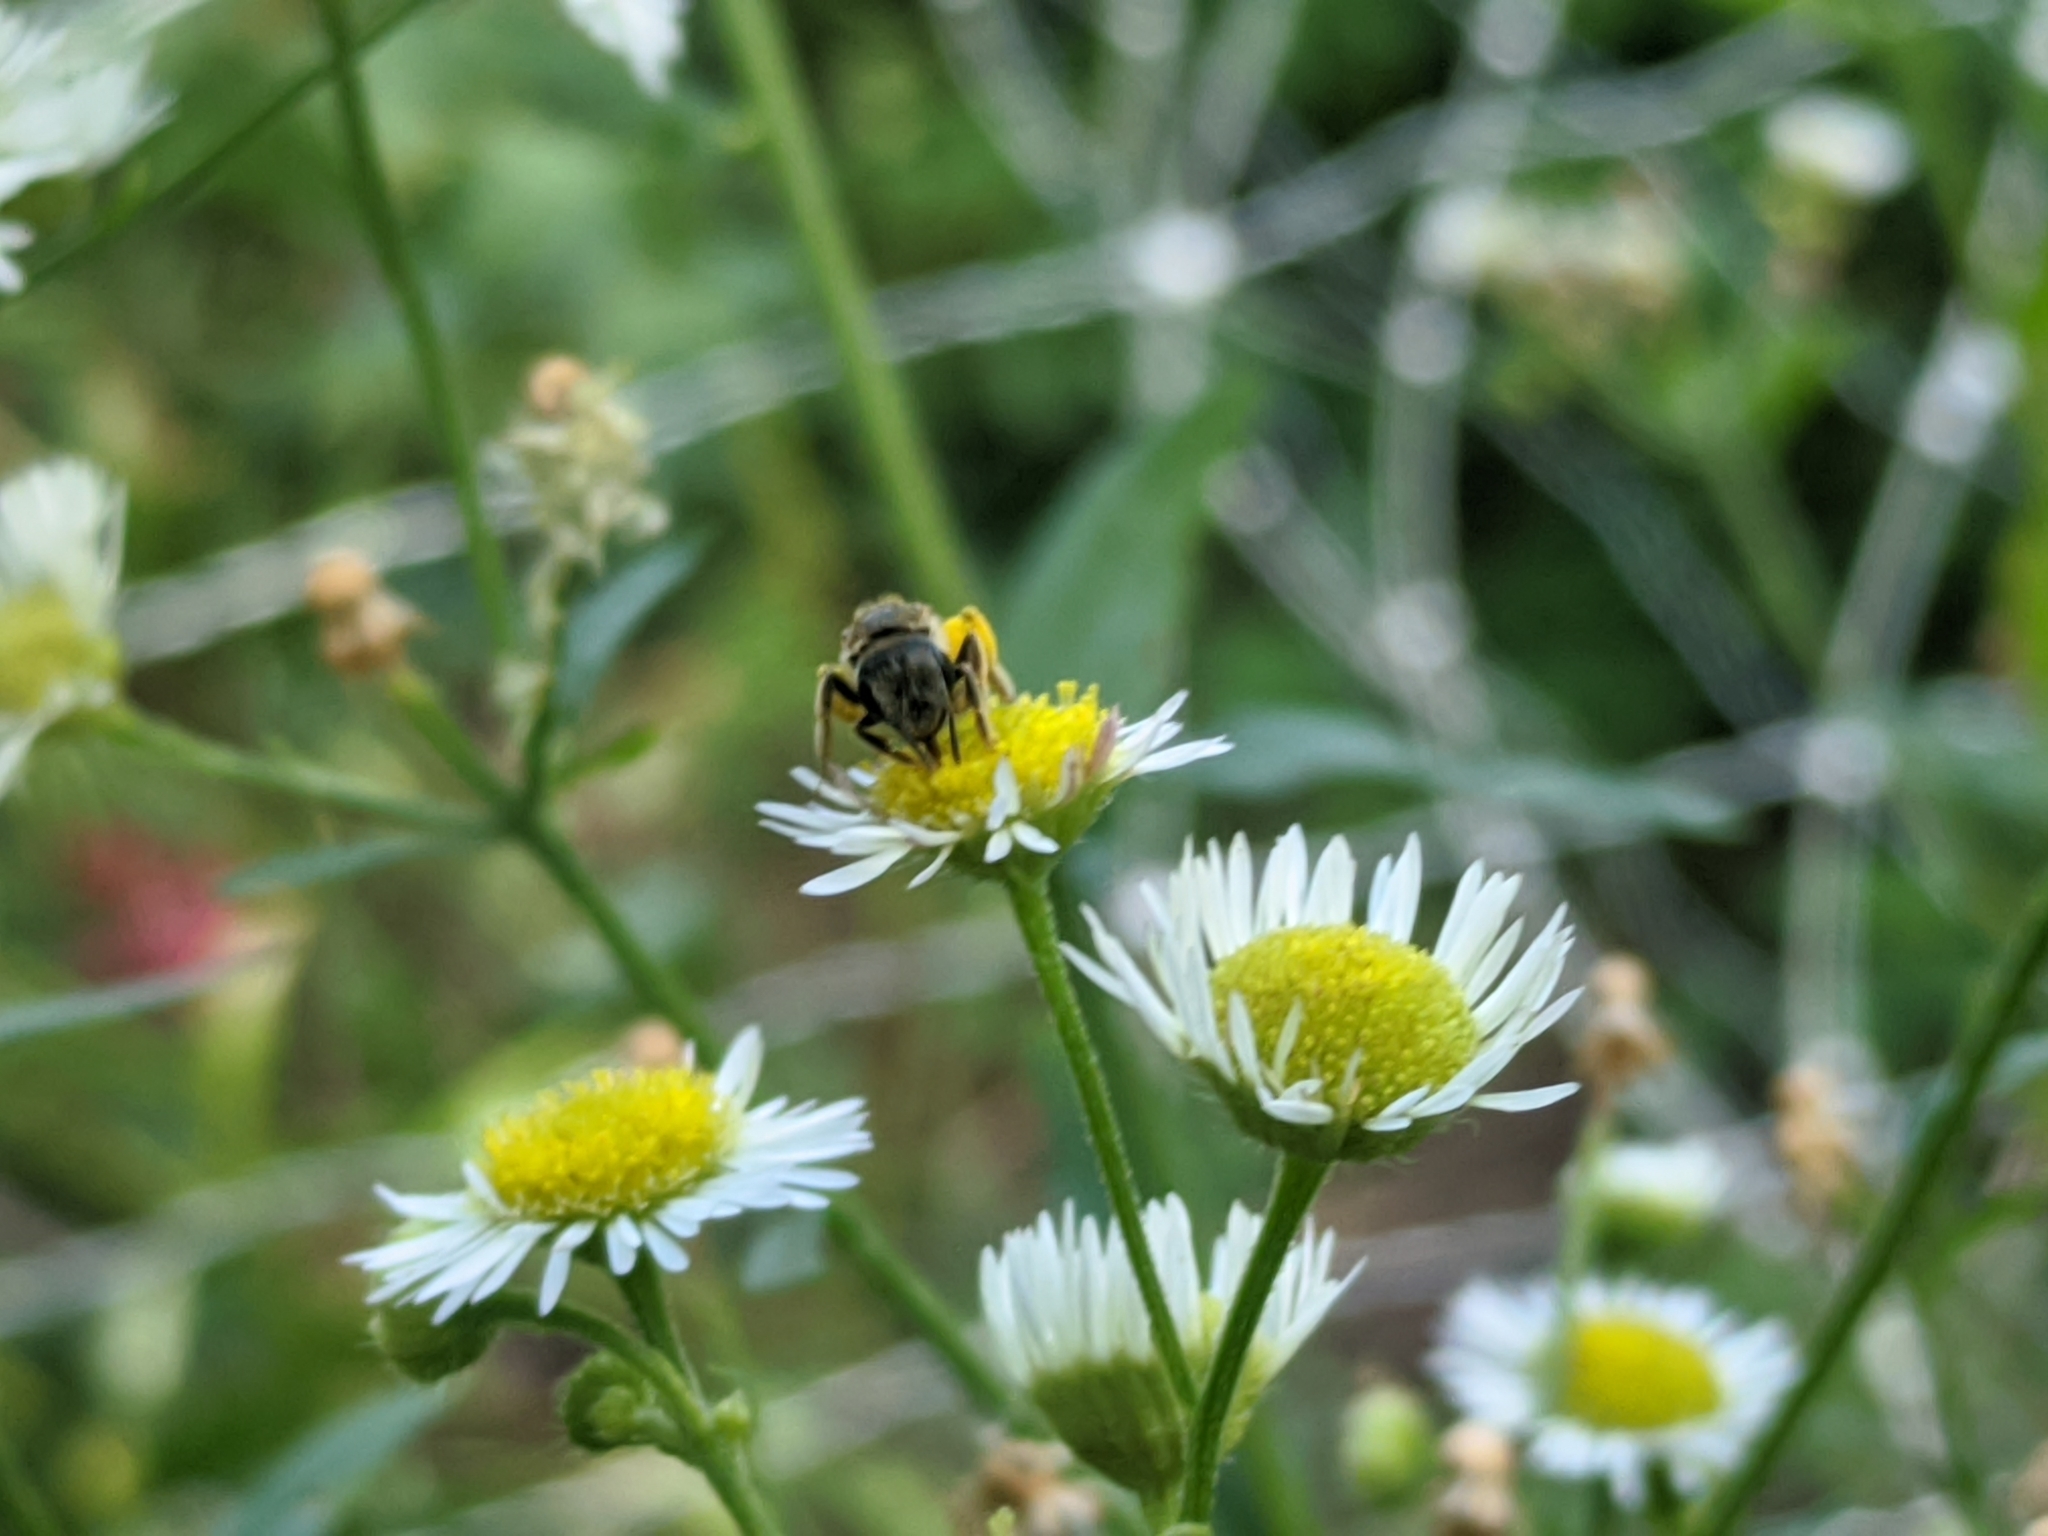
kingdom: Animalia
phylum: Arthropoda
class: Insecta
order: Hymenoptera
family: Halictidae
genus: Halictus
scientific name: Halictus ligatus
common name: Ligated furrow bee
